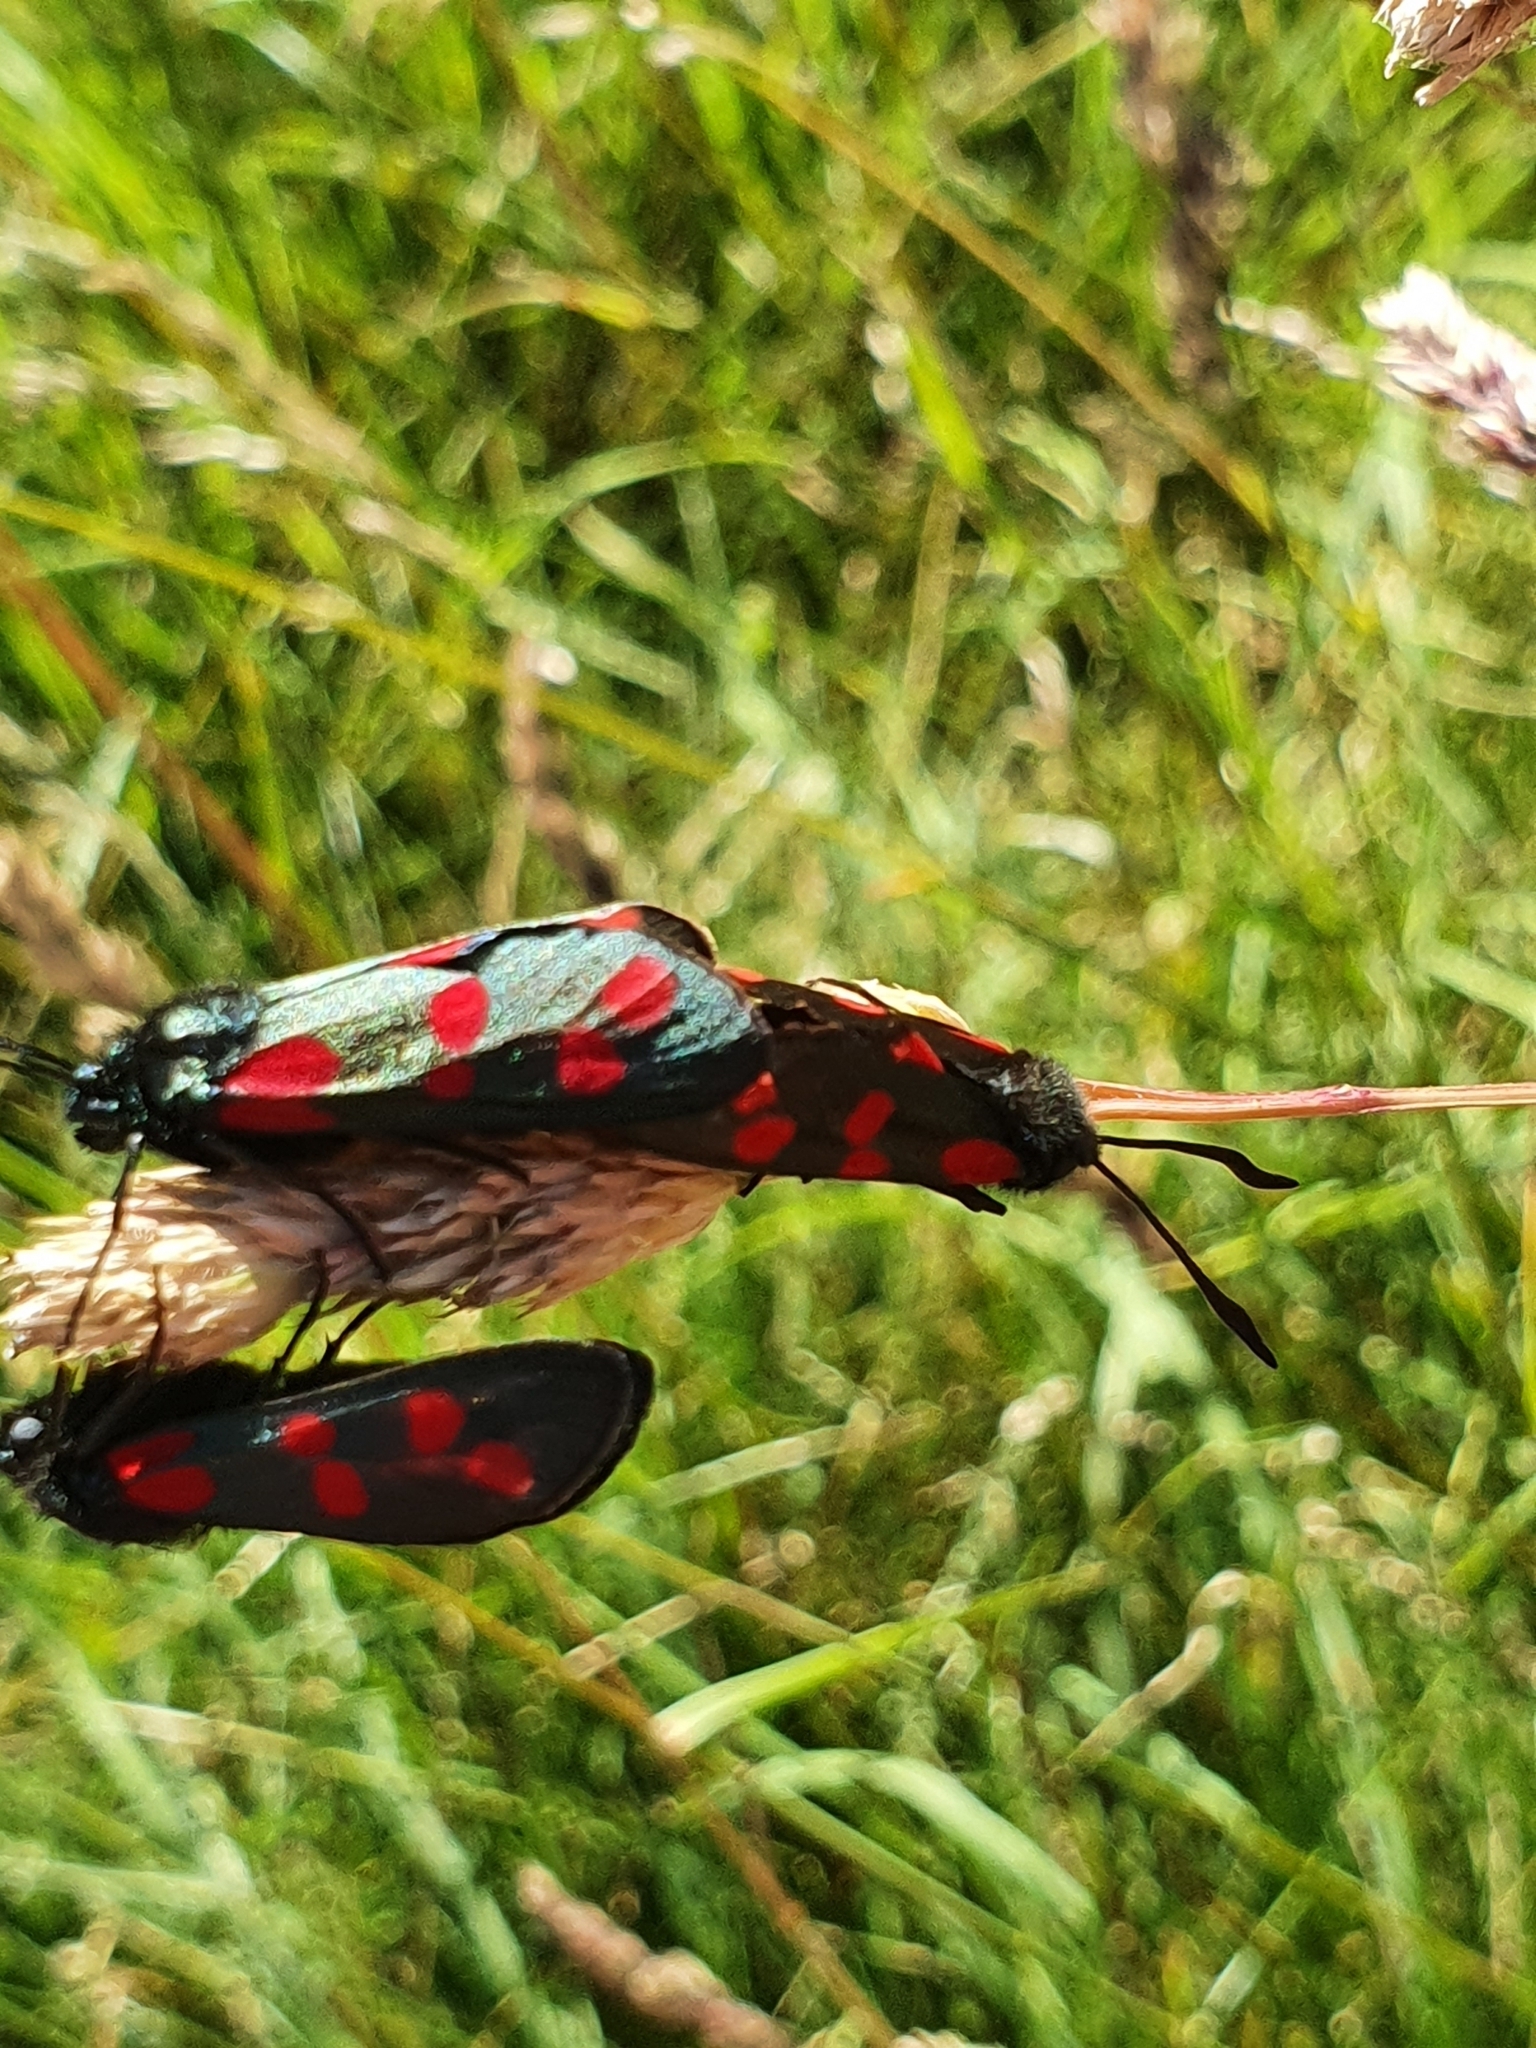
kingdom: Animalia
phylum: Arthropoda
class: Insecta
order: Lepidoptera
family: Zygaenidae
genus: Zygaena
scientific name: Zygaena filipendulae
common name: Six-spot burnet
